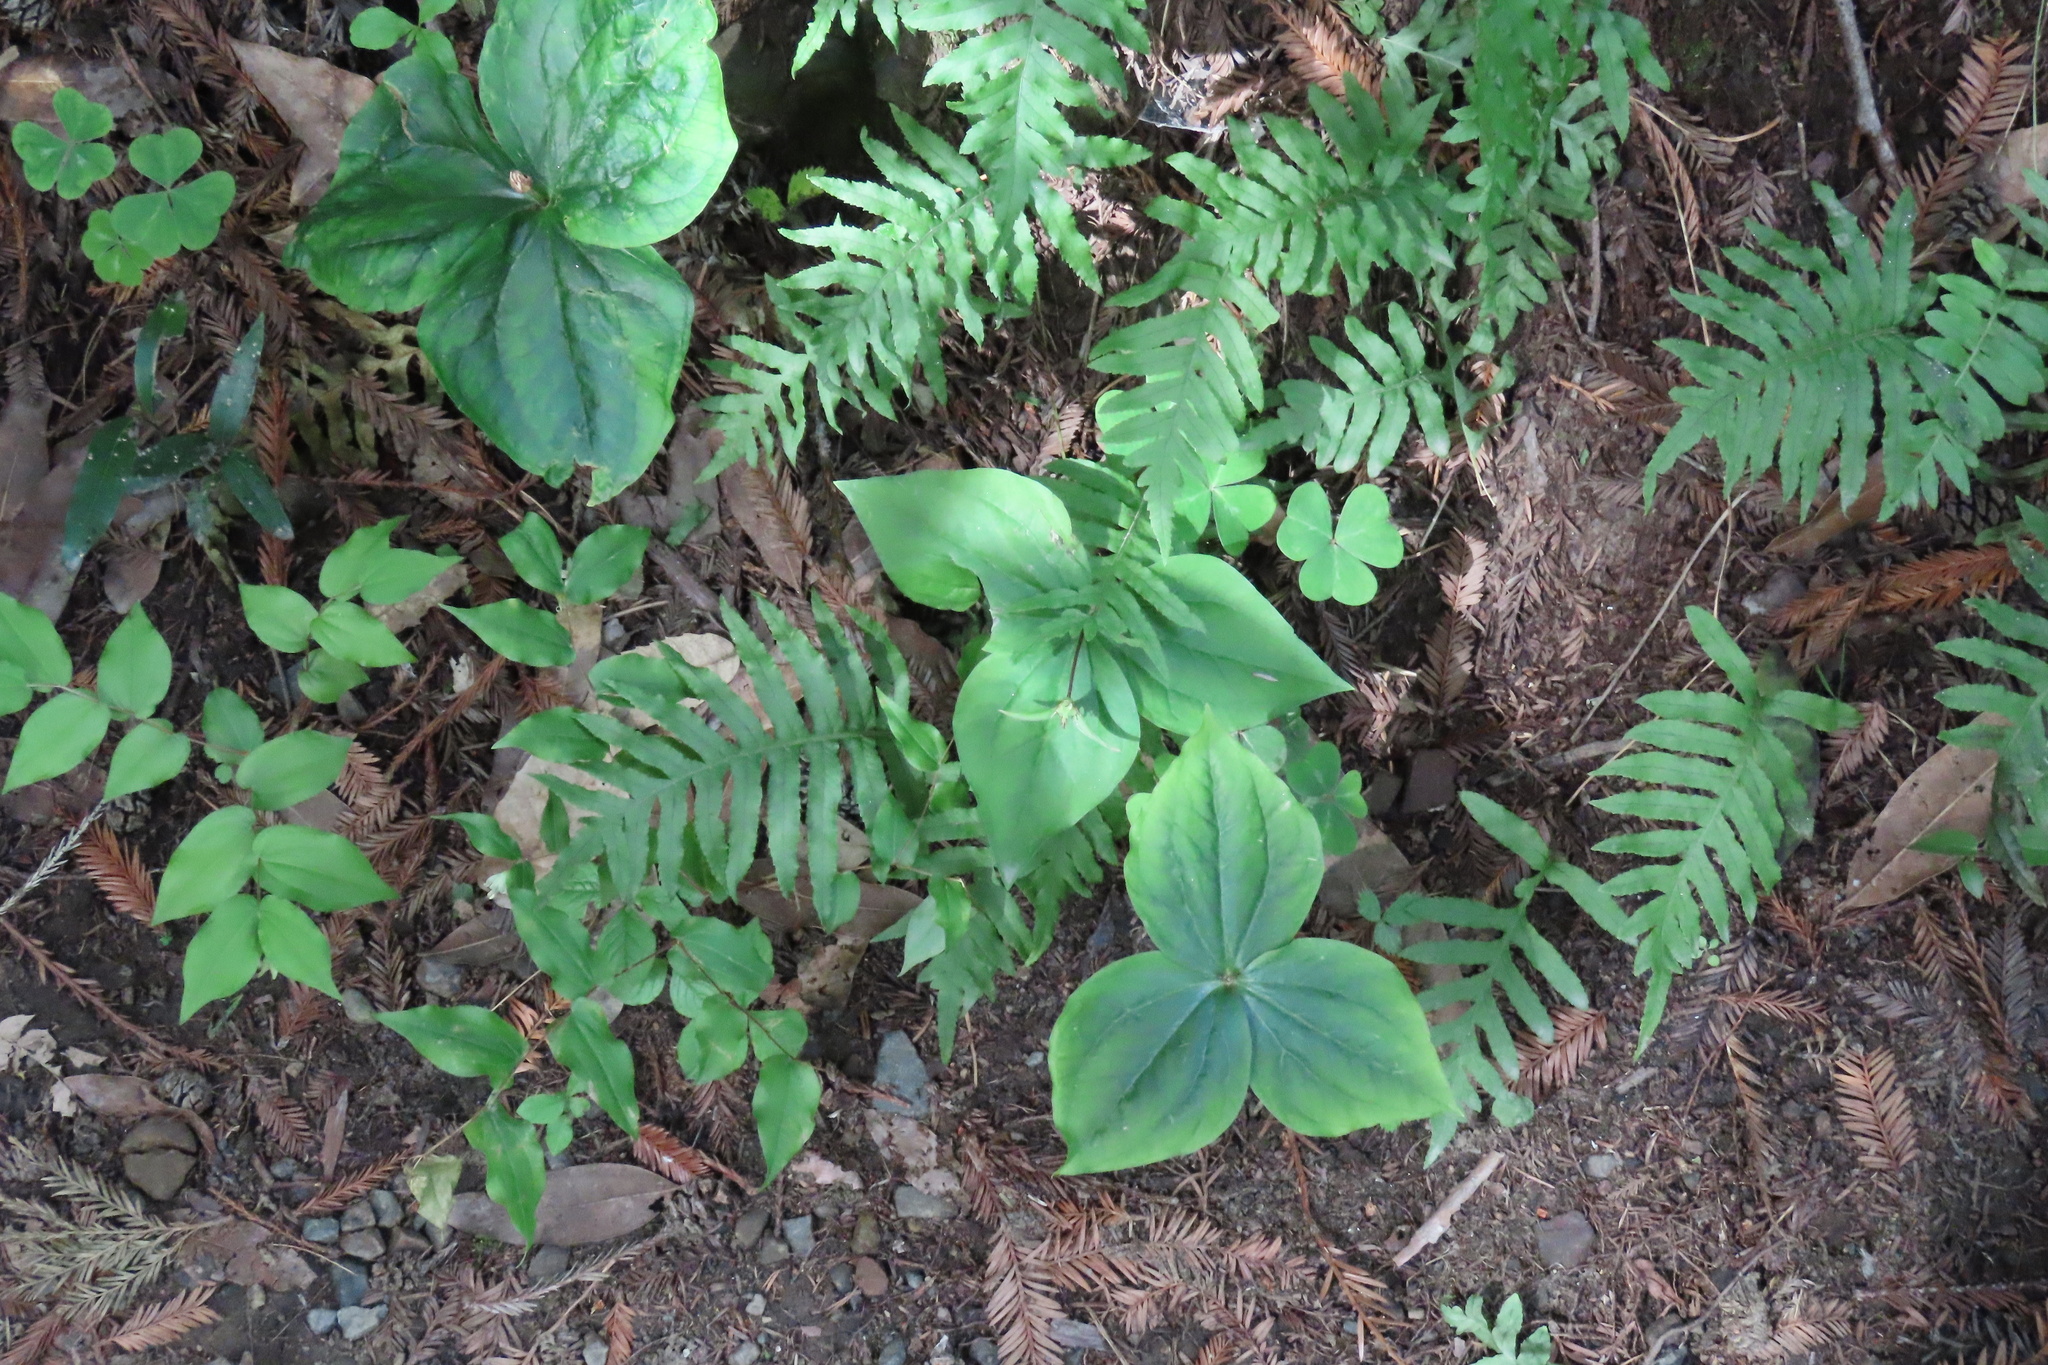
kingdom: Plantae
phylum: Tracheophyta
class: Liliopsida
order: Liliales
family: Melanthiaceae
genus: Trillium
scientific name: Trillium ovatum
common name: Pacific trillium
